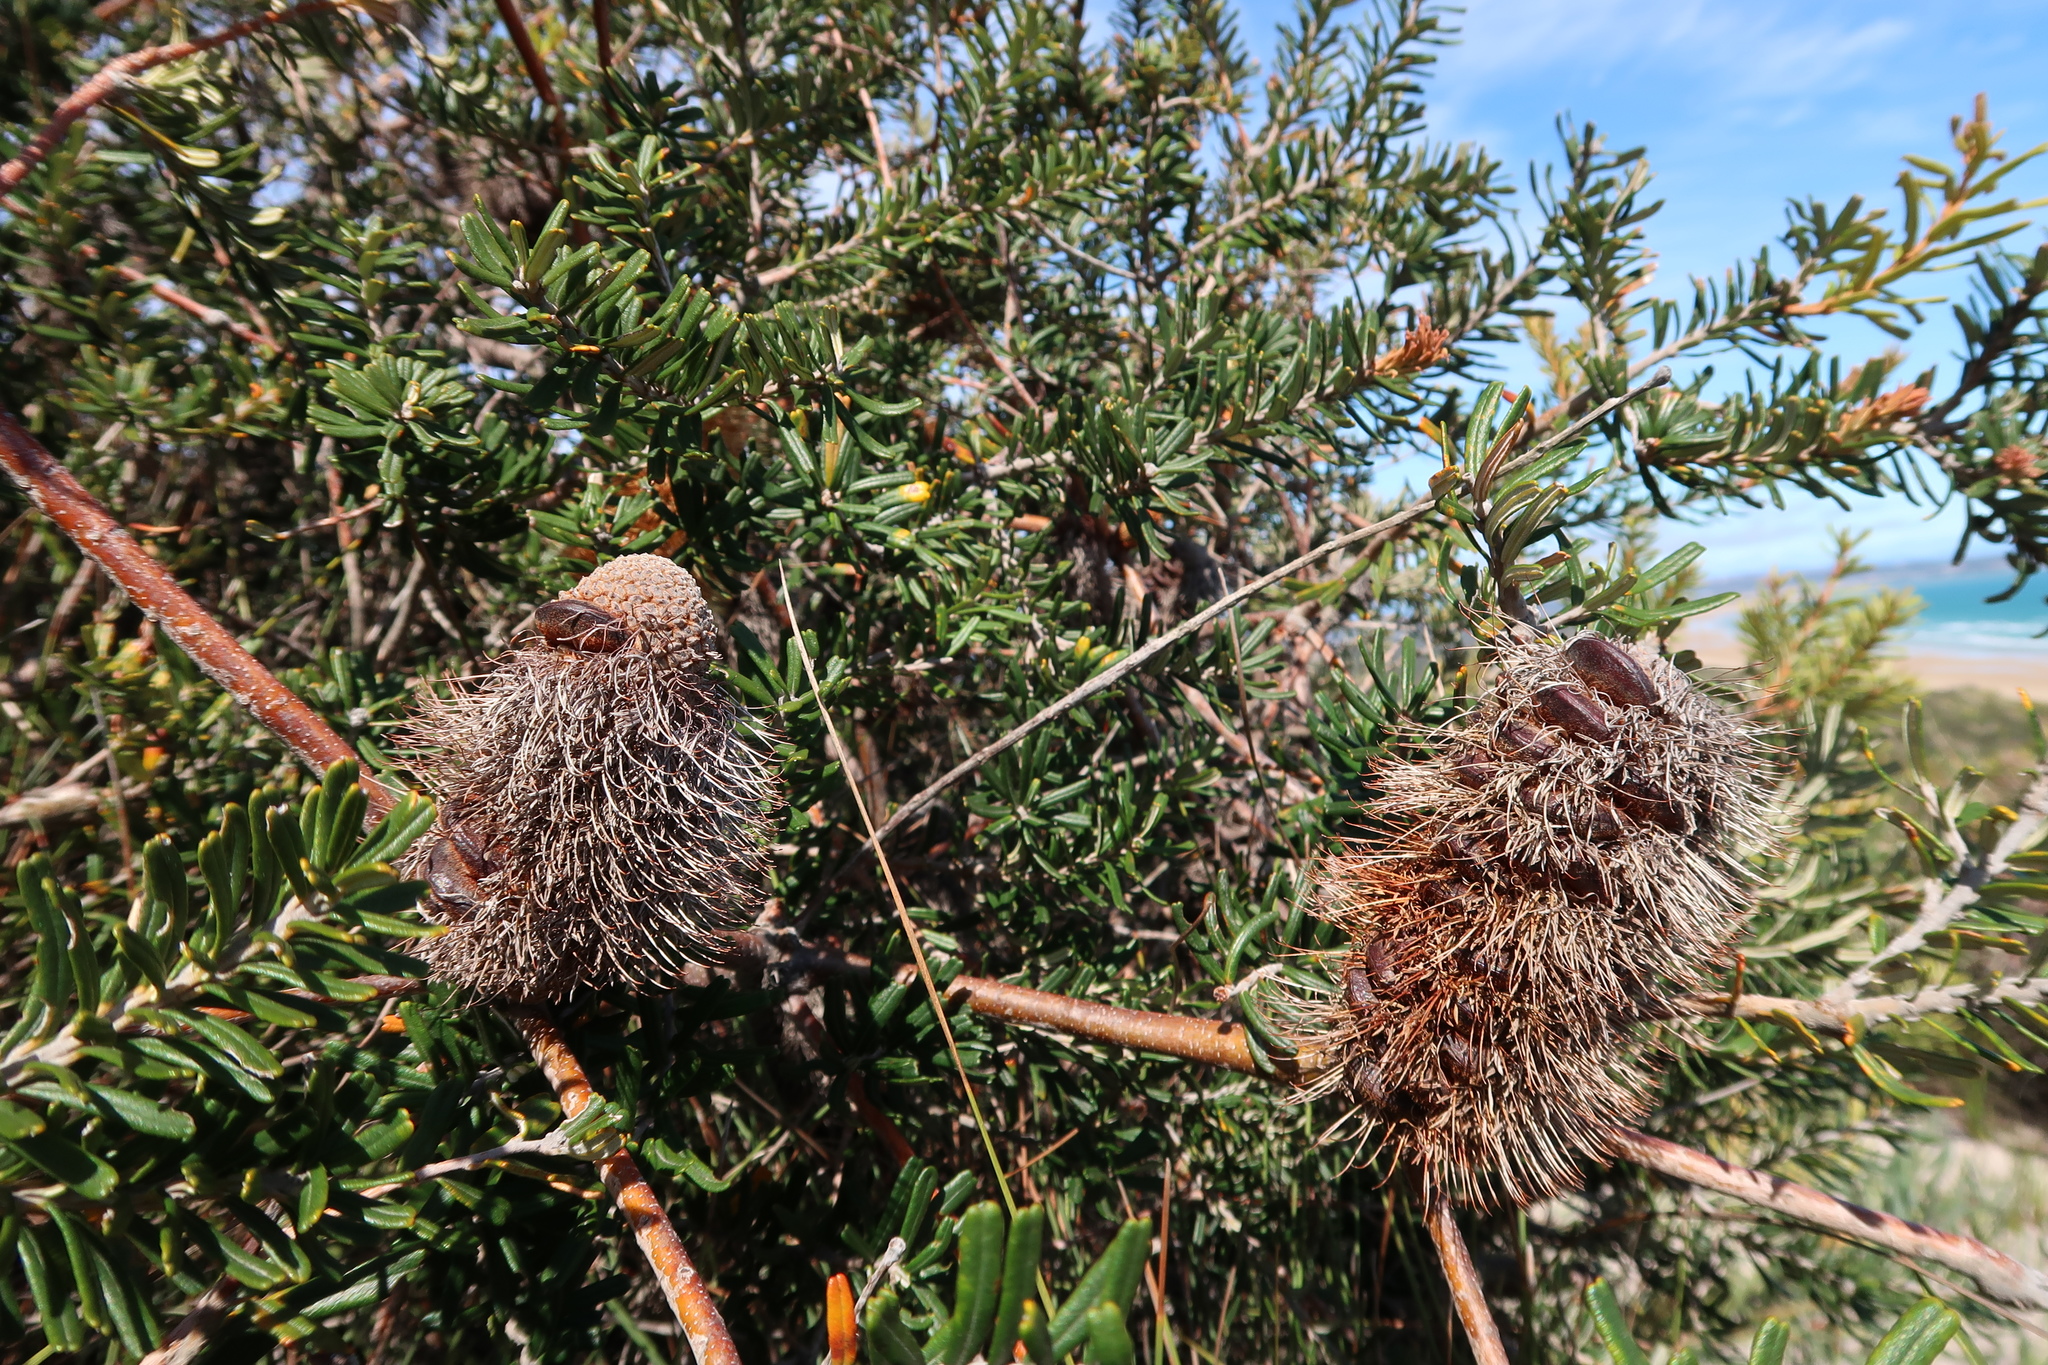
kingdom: Plantae
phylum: Tracheophyta
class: Magnoliopsida
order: Proteales
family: Proteaceae
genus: Banksia
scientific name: Banksia marginata
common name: Silver banksia
